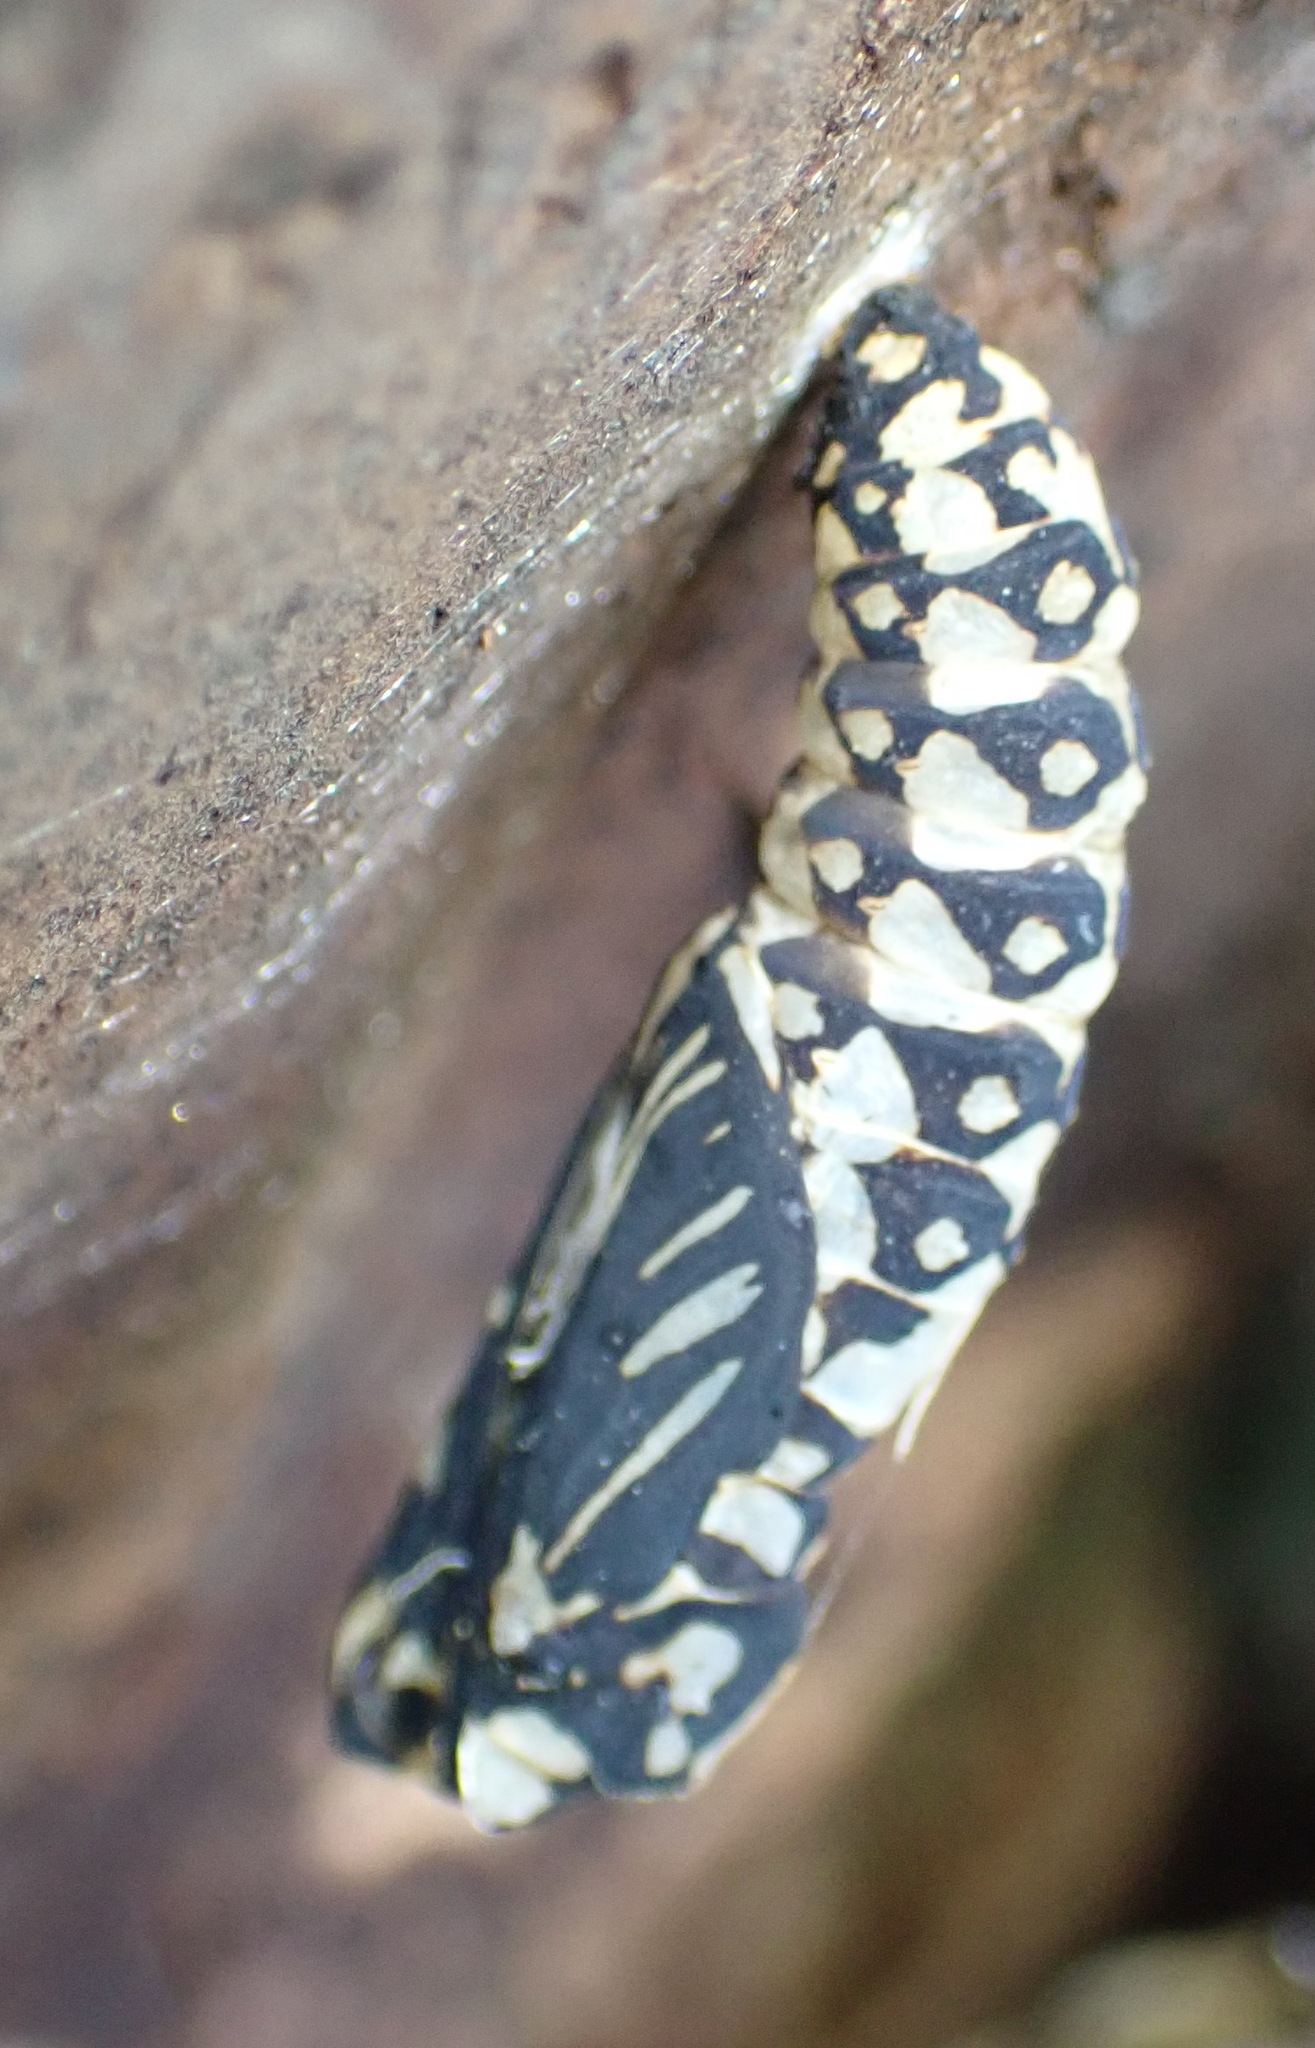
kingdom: Animalia
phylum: Arthropoda
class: Insecta
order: Lepidoptera
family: Nymphalidae
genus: Acraea
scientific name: Acraea horta
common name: Garden acraea
